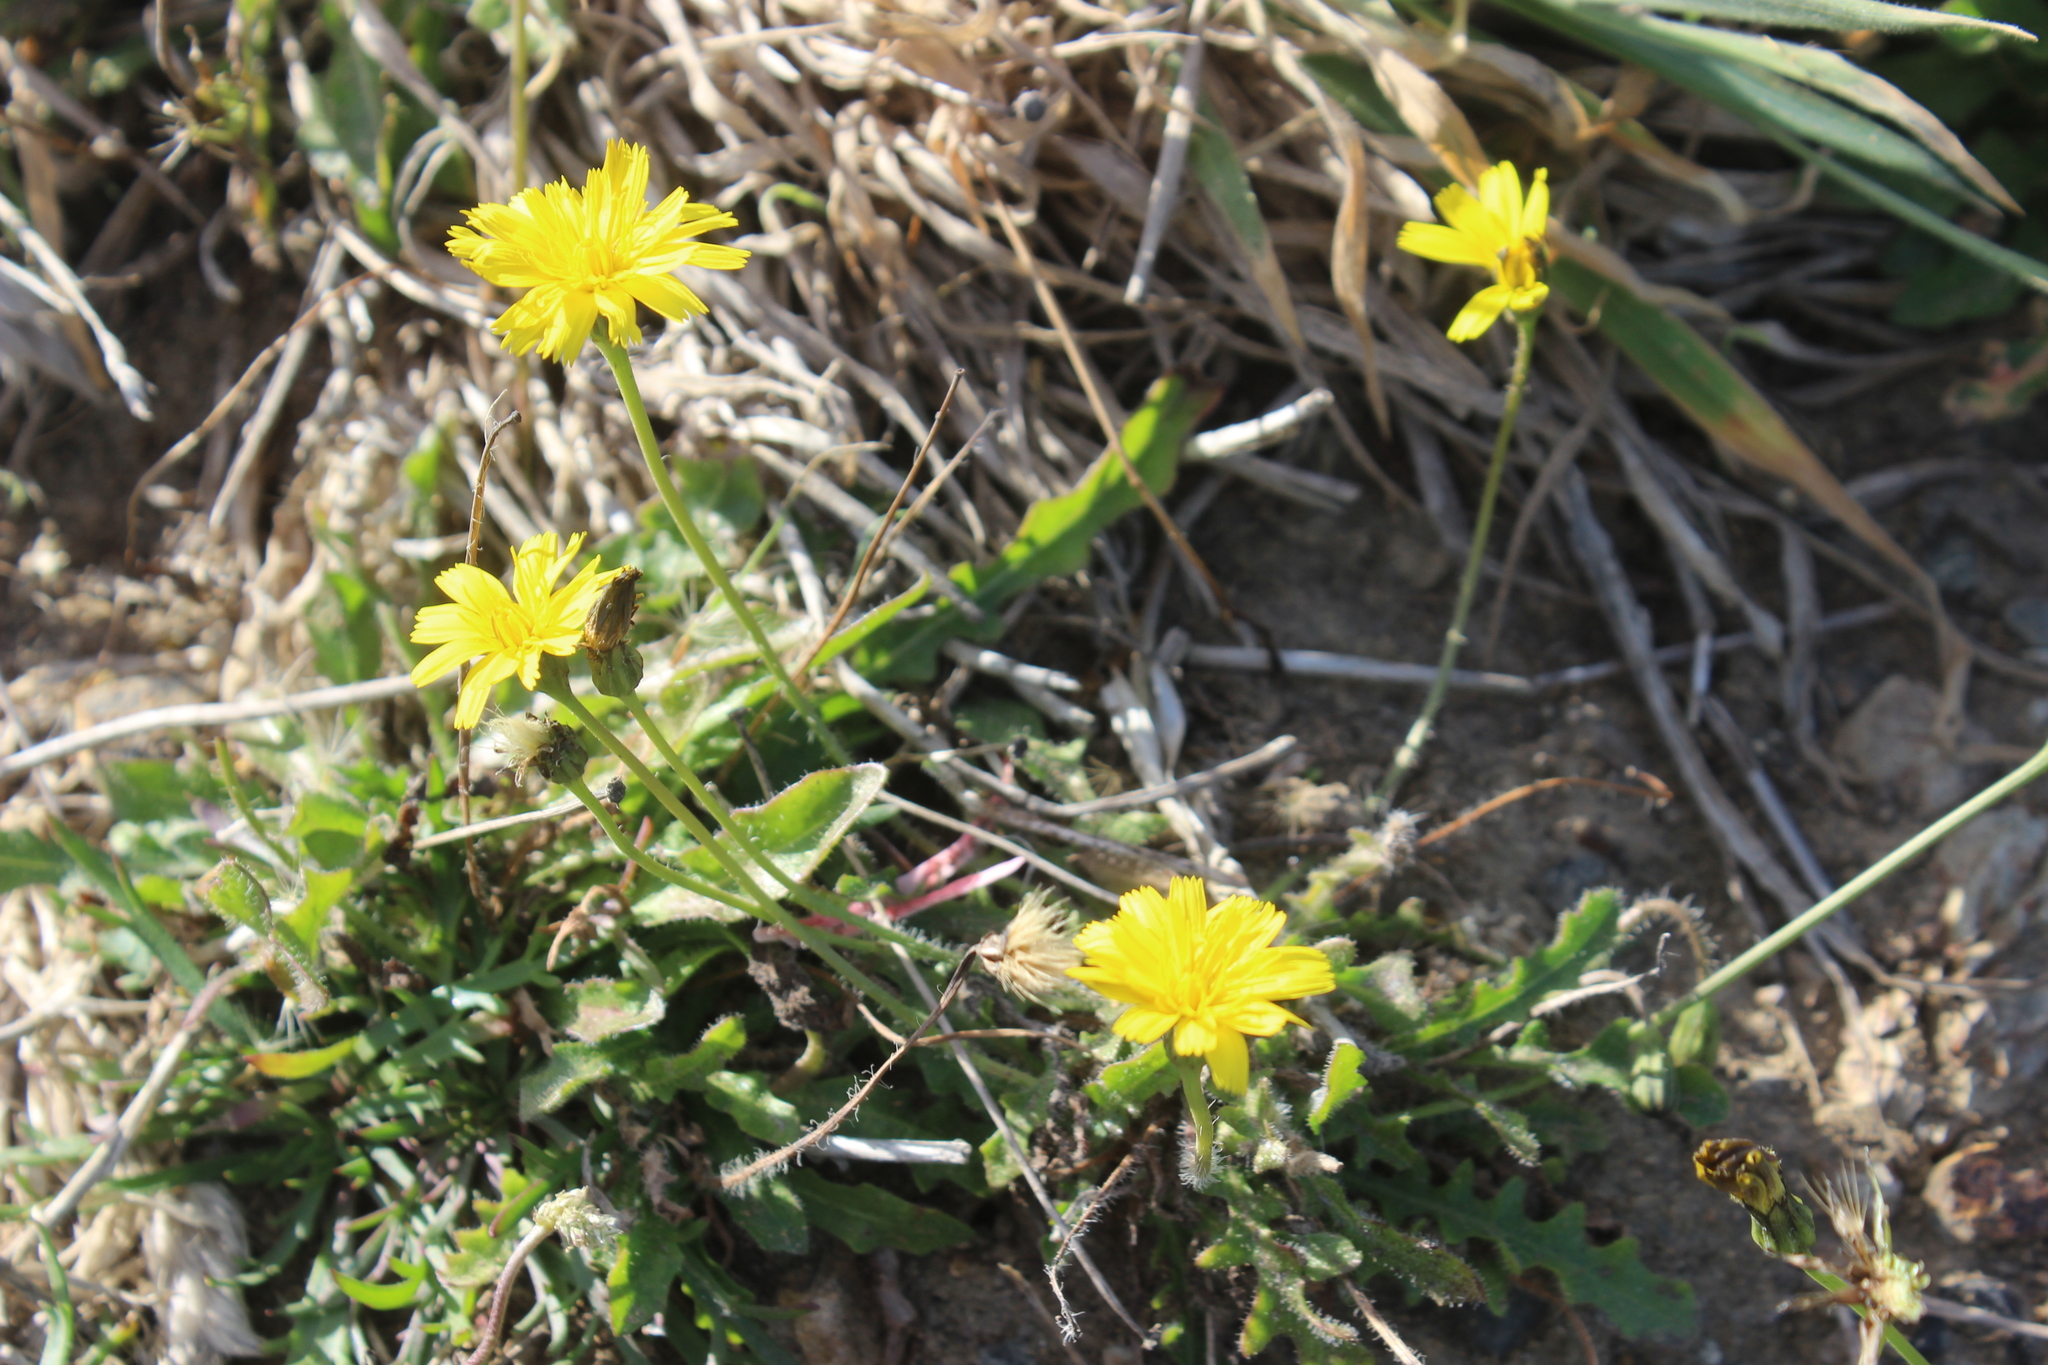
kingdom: Plantae
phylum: Tracheophyta
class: Magnoliopsida
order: Asterales
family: Asteraceae
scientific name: Asteraceae
